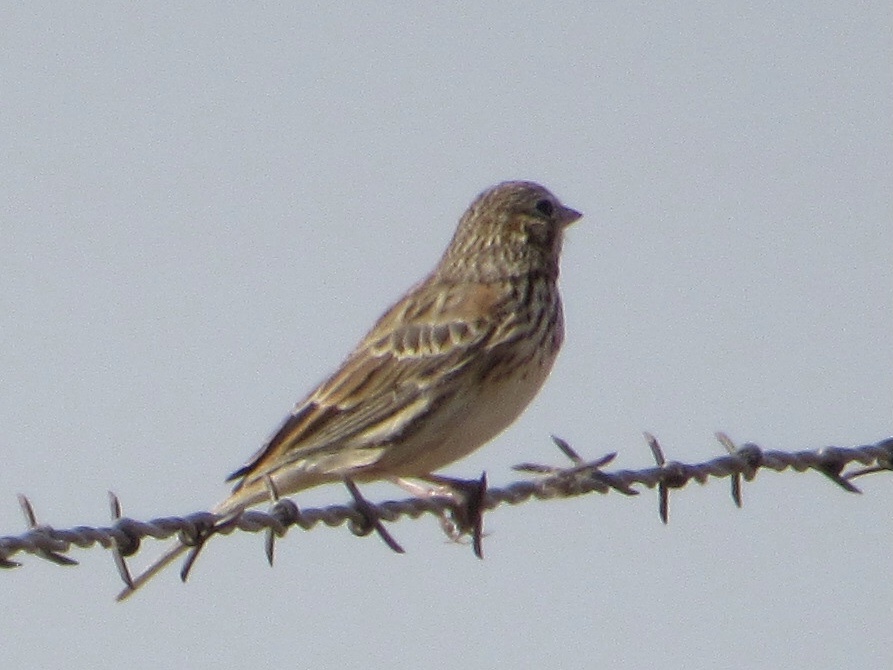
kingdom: Animalia
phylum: Chordata
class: Aves
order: Passeriformes
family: Passerellidae
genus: Pooecetes
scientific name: Pooecetes gramineus
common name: Vesper sparrow
